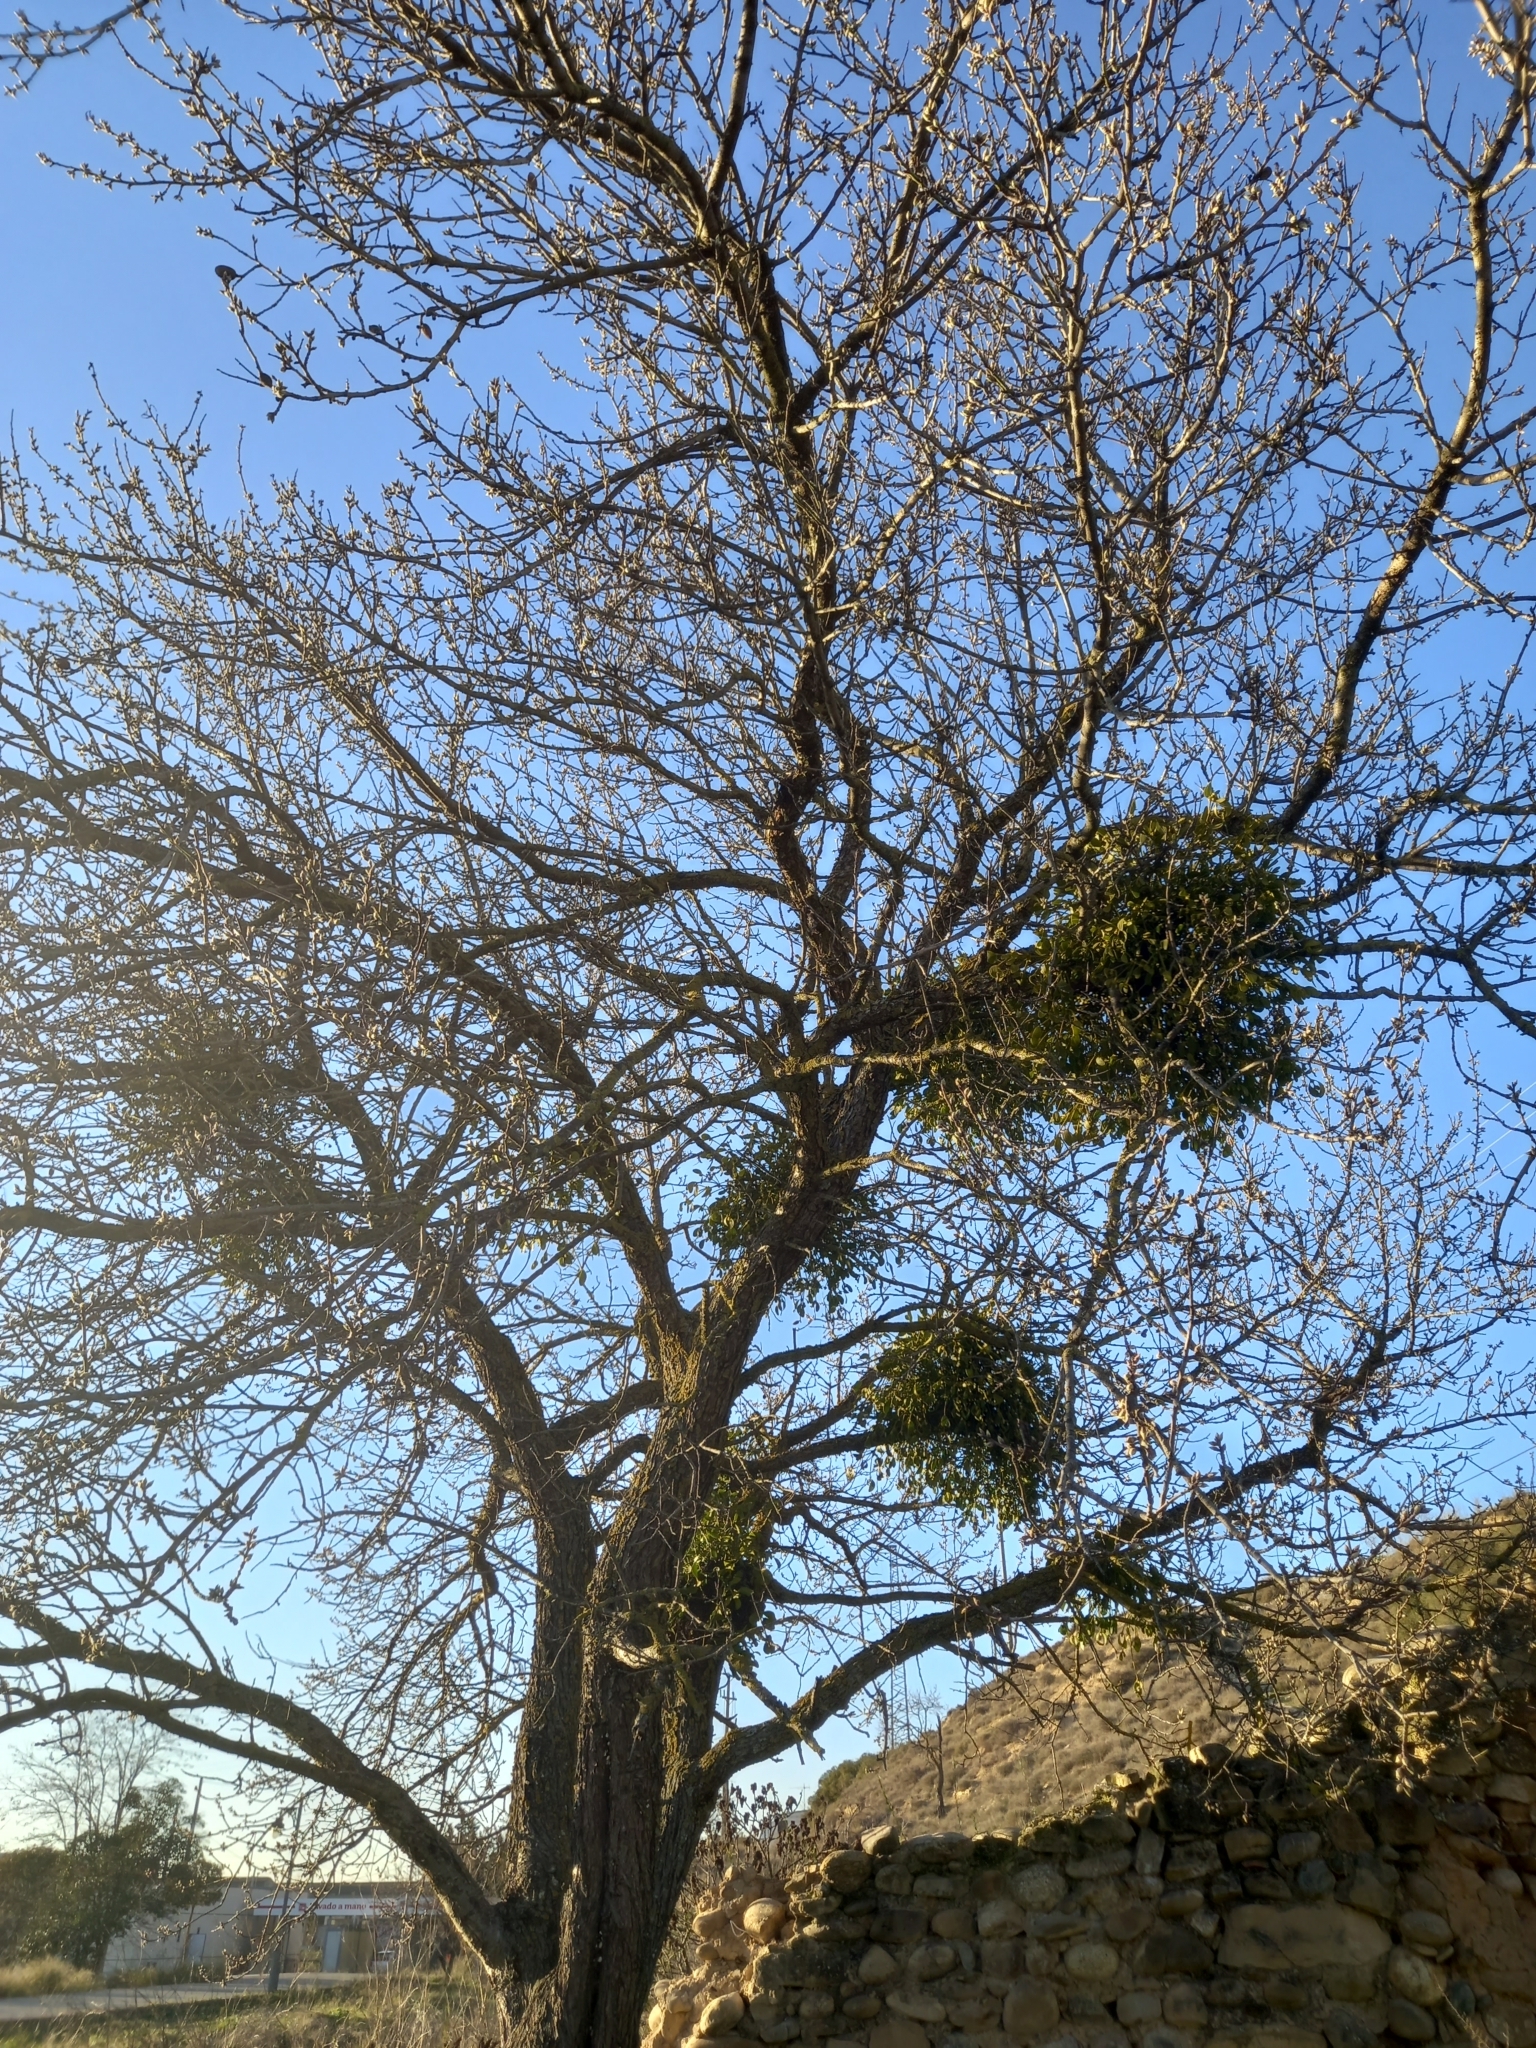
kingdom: Plantae
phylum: Tracheophyta
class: Magnoliopsida
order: Santalales
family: Viscaceae
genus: Viscum
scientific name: Viscum album
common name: Mistletoe
